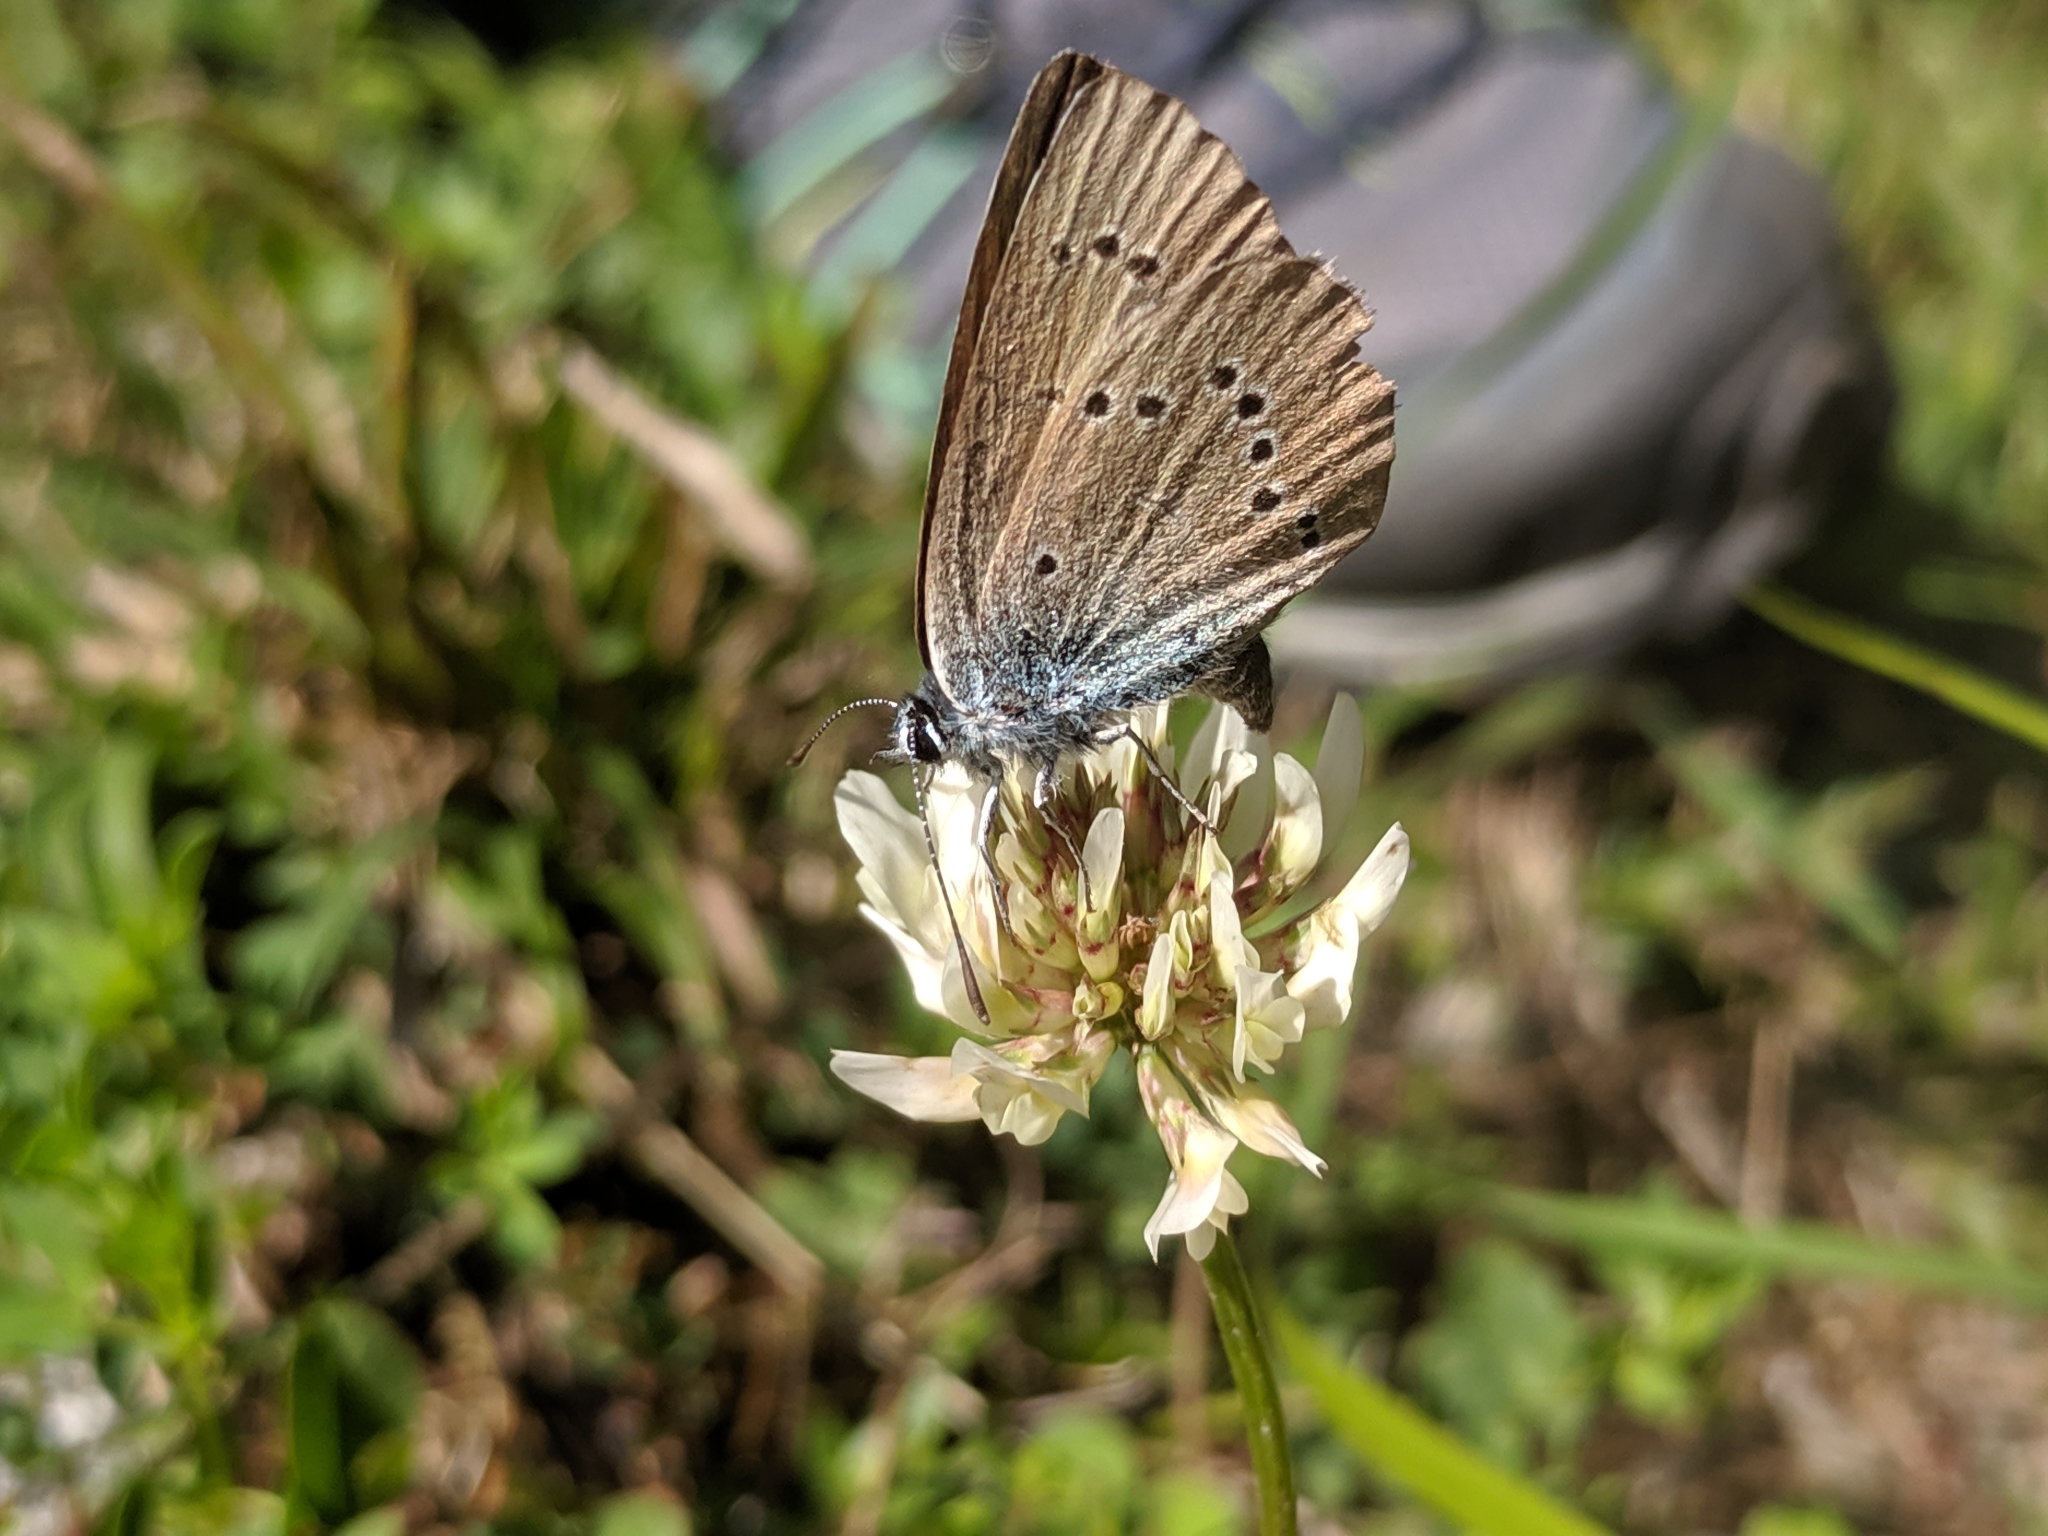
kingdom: Animalia
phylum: Arthropoda
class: Insecta
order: Lepidoptera
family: Lycaenidae
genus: Cyaniris
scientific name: Cyaniris semiargus
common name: Mazarine blue
